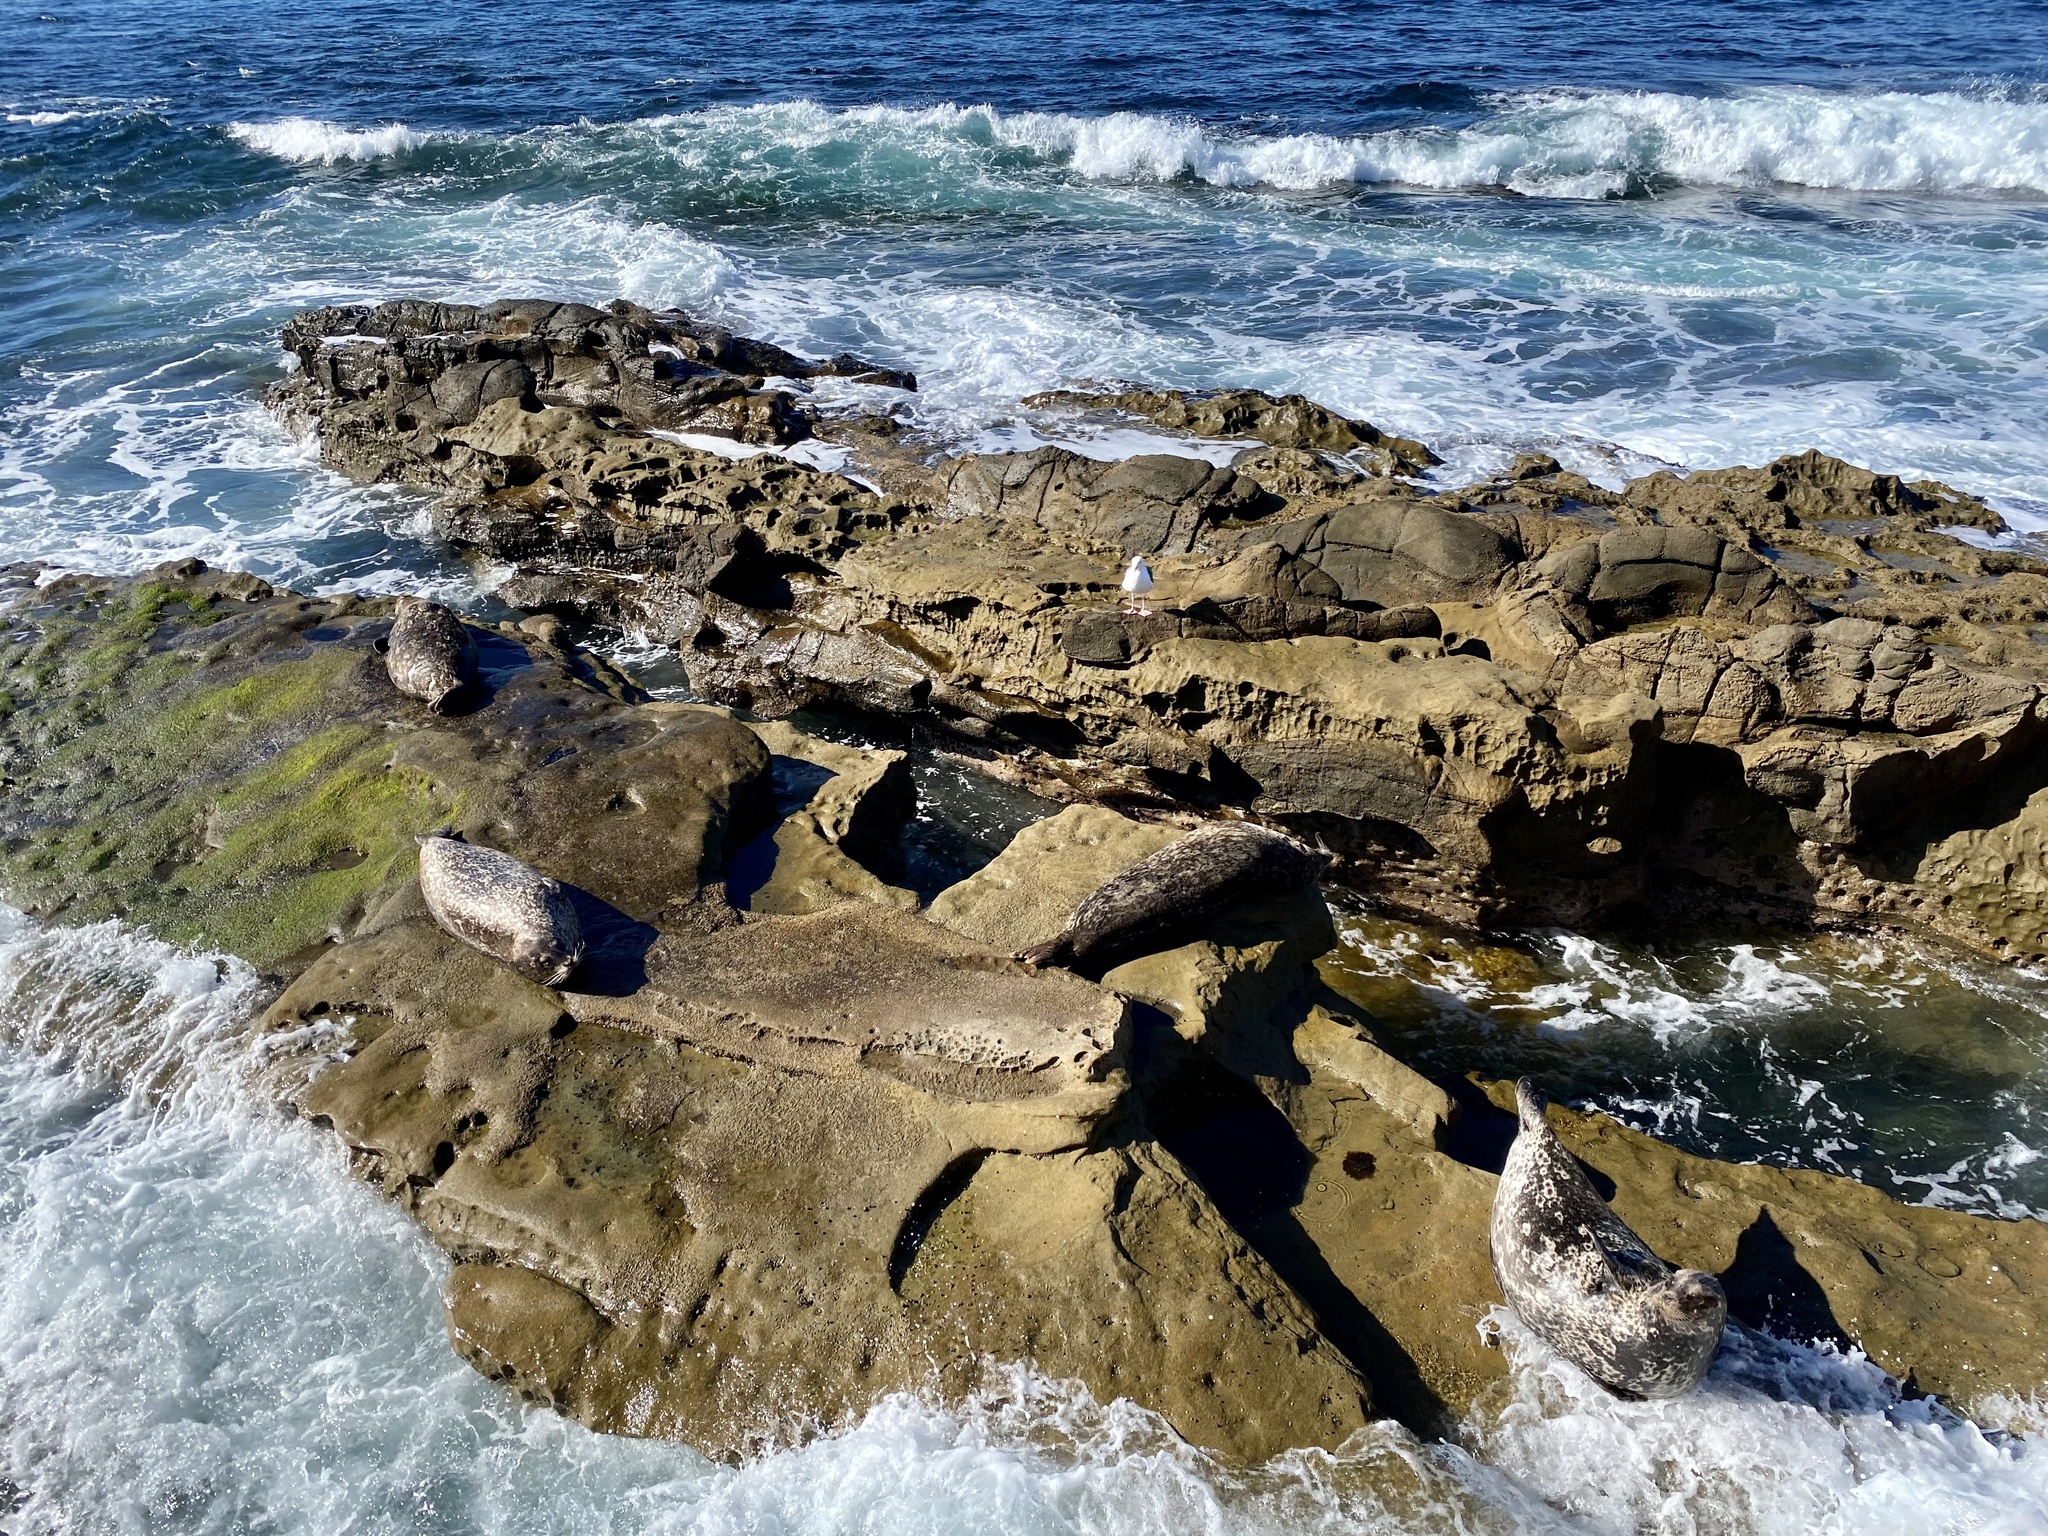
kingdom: Animalia
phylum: Chordata
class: Mammalia
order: Carnivora
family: Phocidae
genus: Phoca
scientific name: Phoca vitulina
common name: Harbor seal
